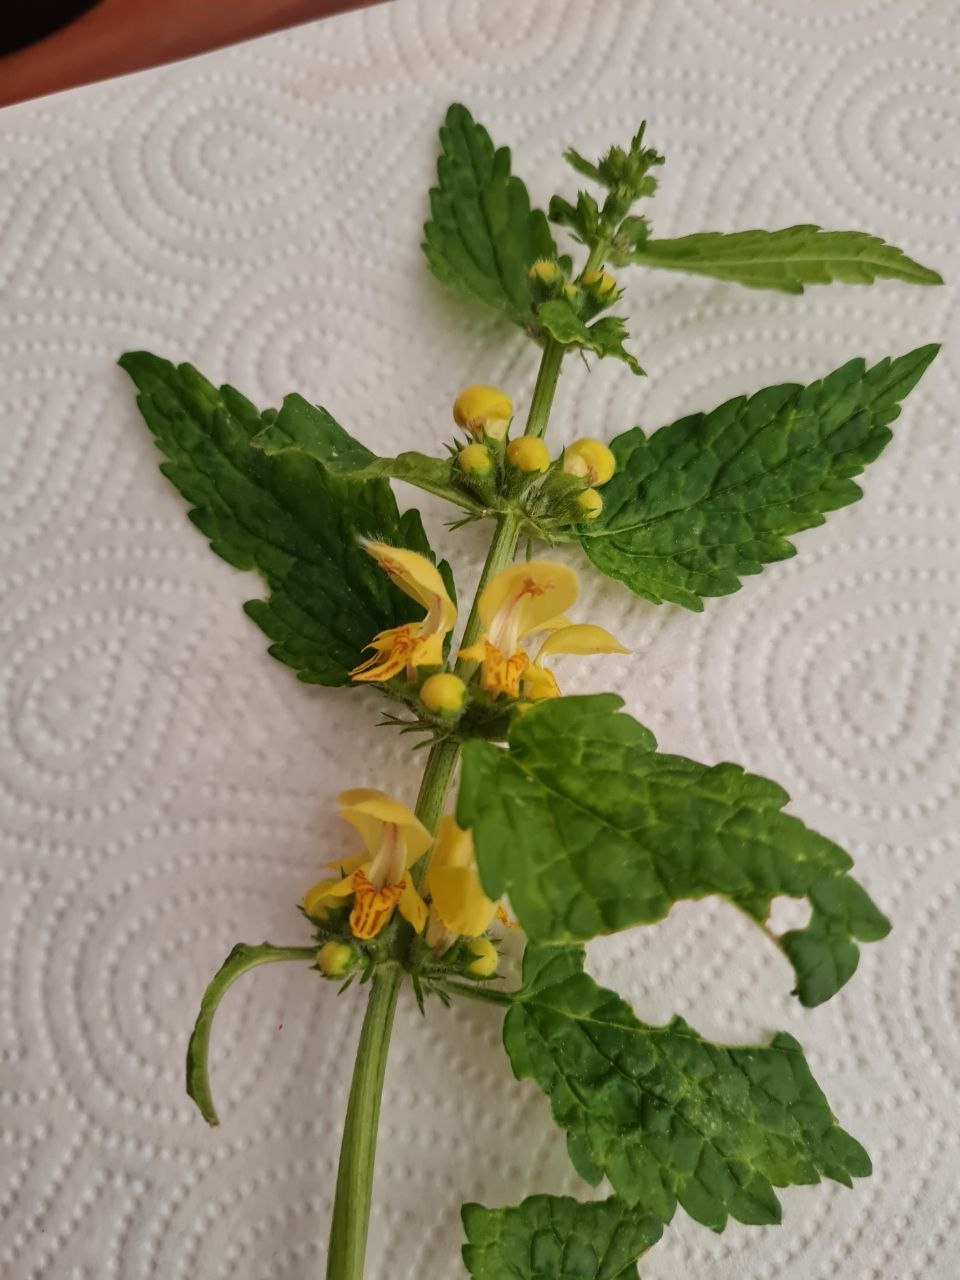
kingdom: Plantae
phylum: Tracheophyta
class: Magnoliopsida
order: Lamiales
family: Lamiaceae
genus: Lamium
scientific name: Lamium galeobdolon
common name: Yellow archangel
